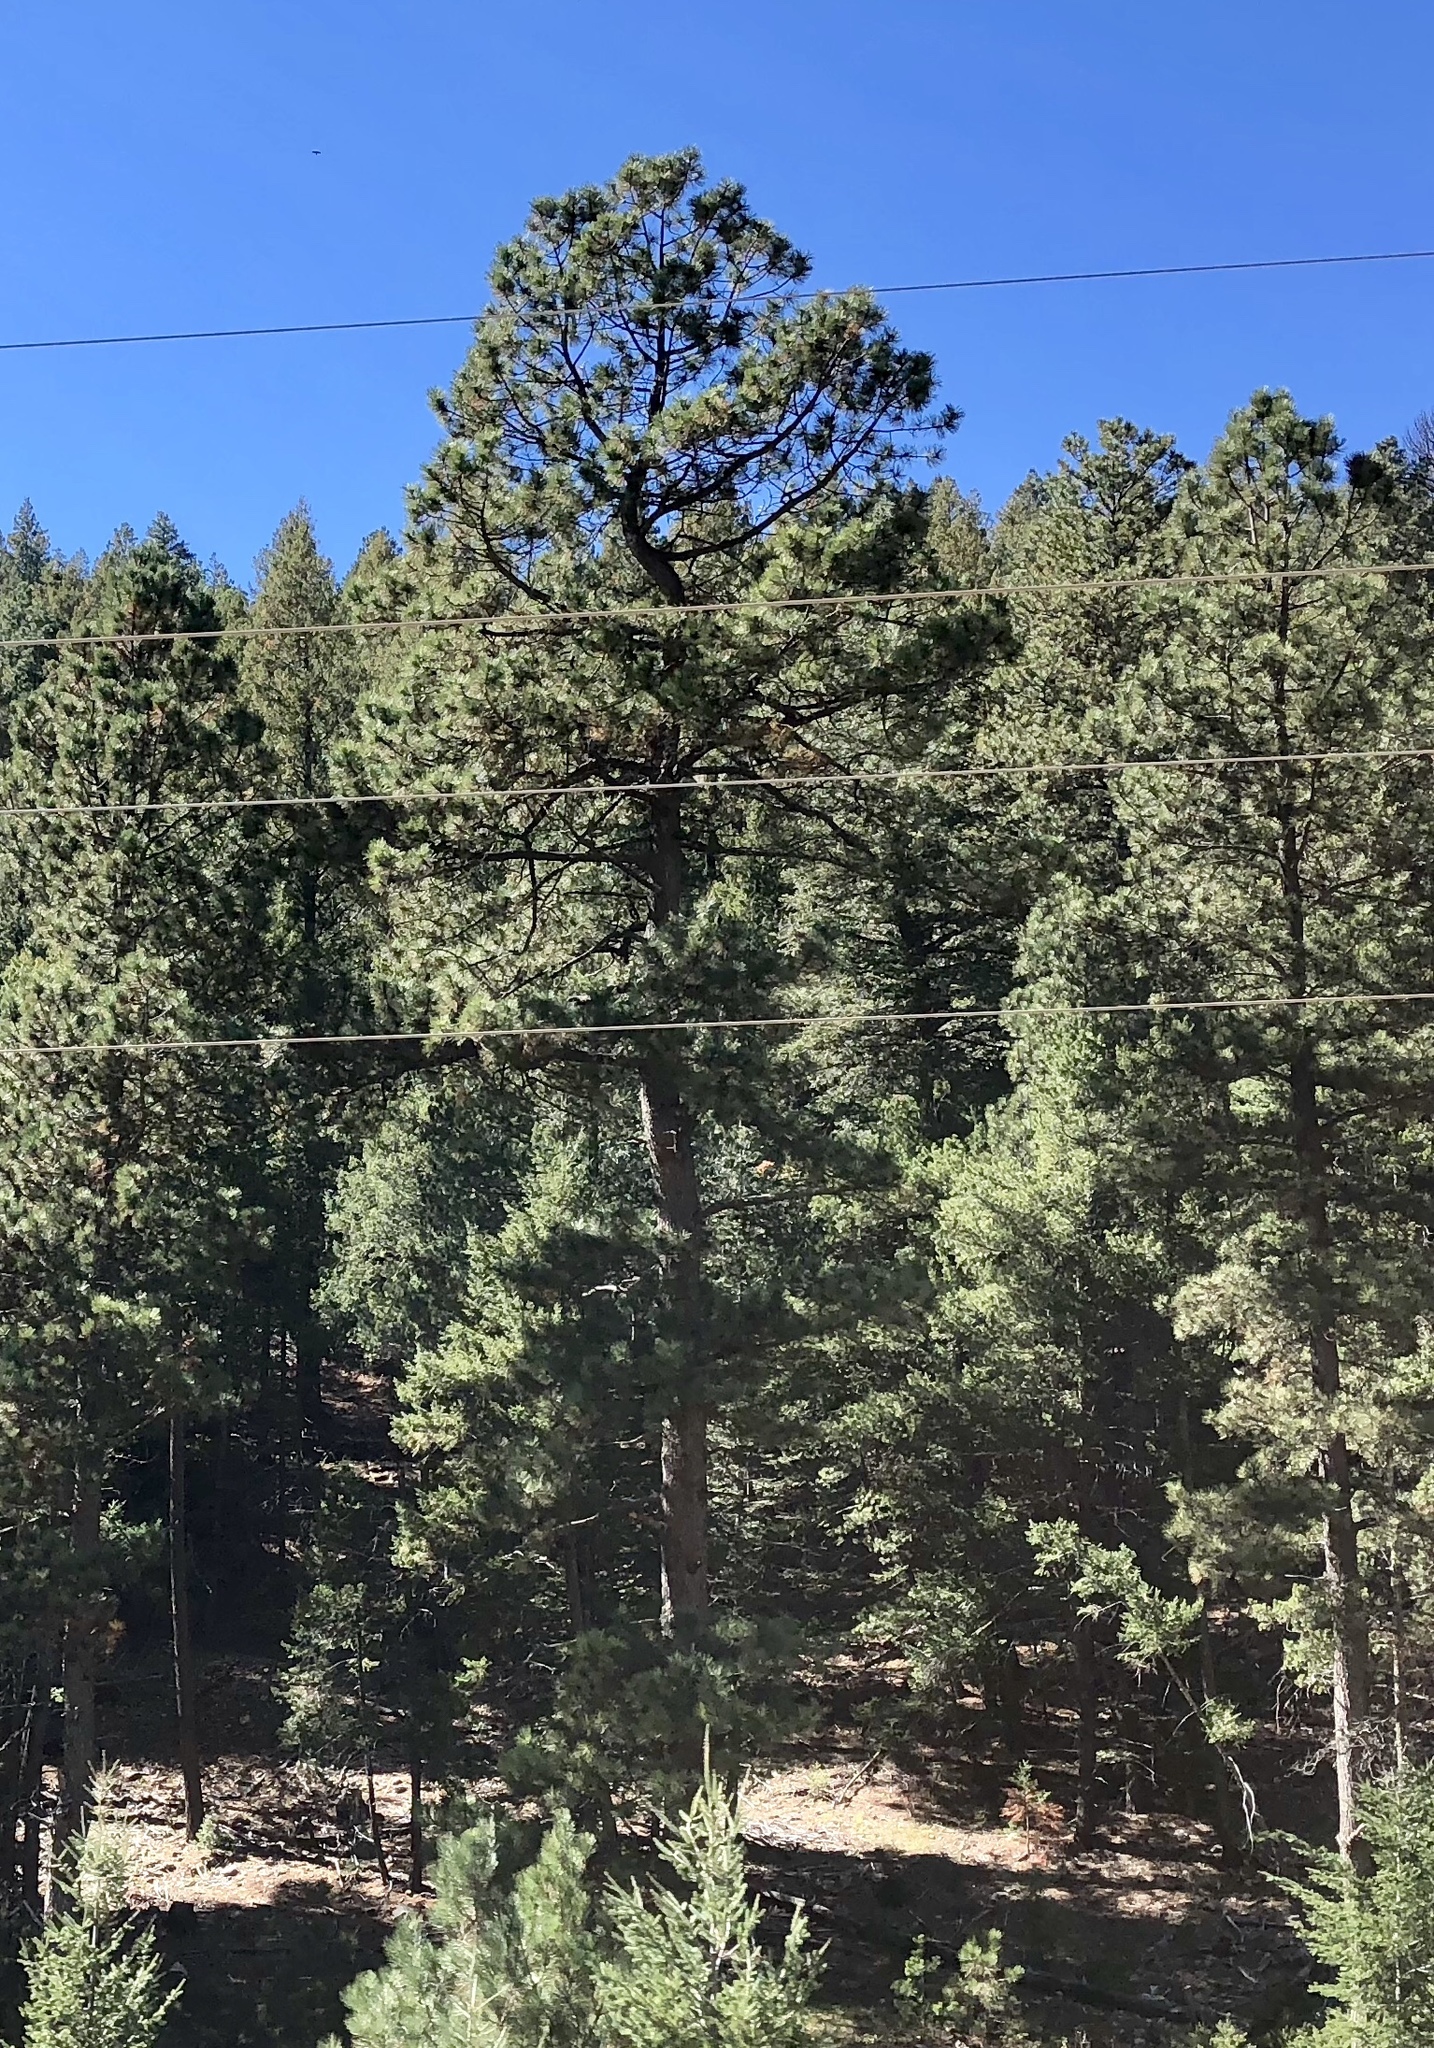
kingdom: Plantae
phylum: Tracheophyta
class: Pinopsida
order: Pinales
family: Pinaceae
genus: Pinus
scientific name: Pinus ponderosa
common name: Western yellow-pine
